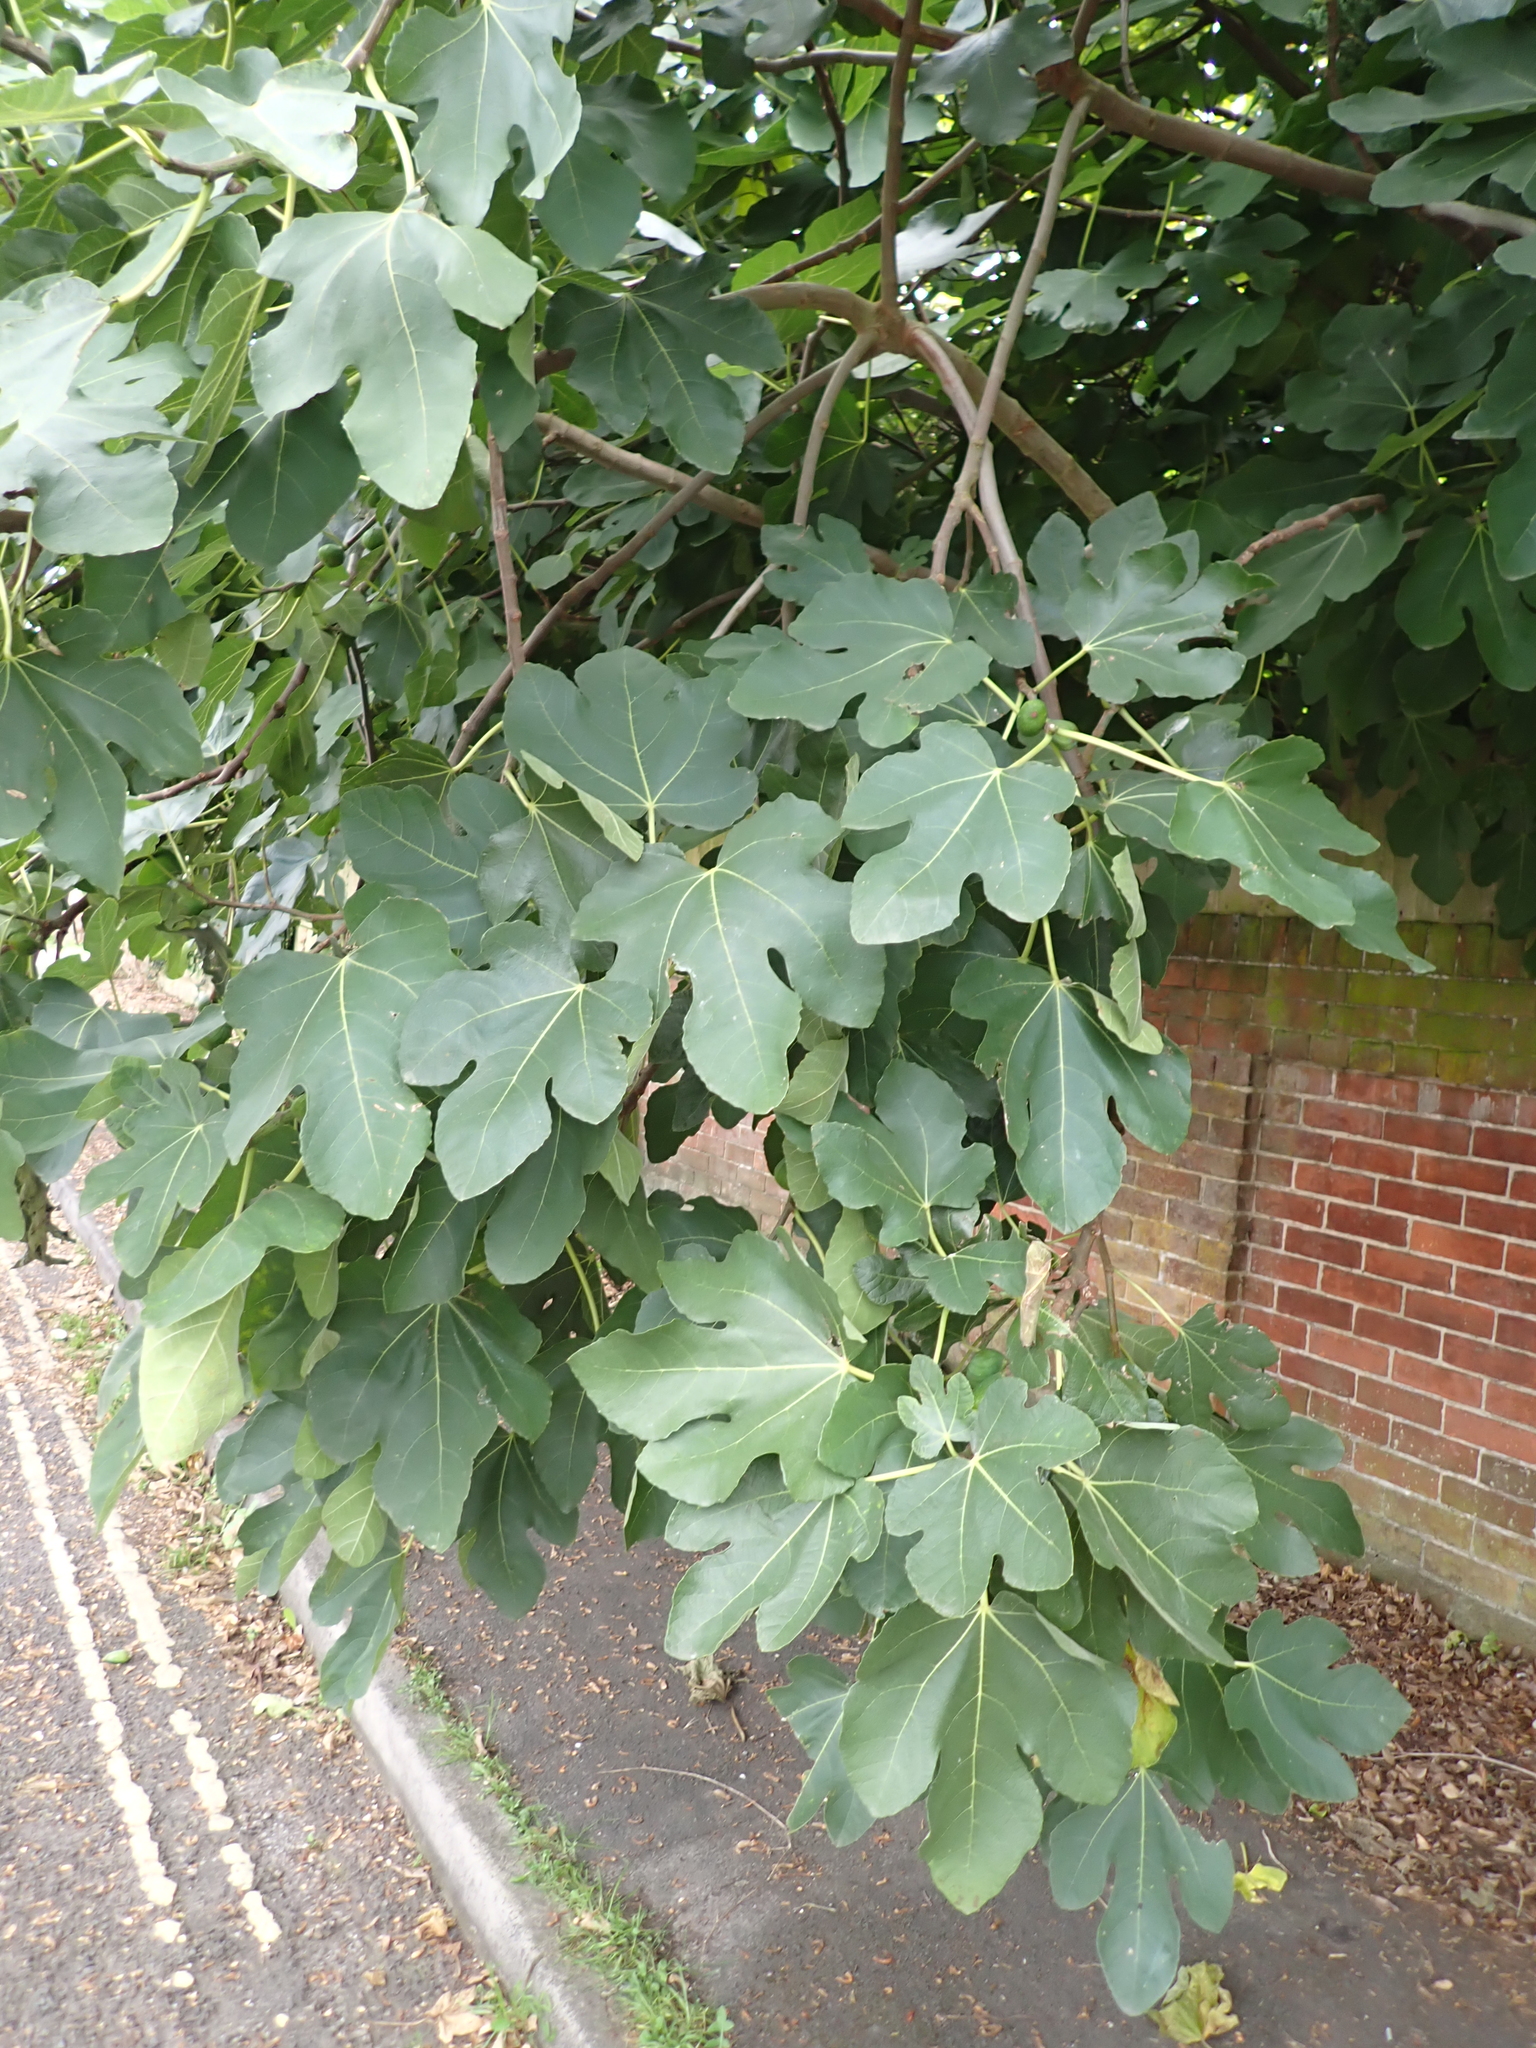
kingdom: Plantae
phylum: Tracheophyta
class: Magnoliopsida
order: Rosales
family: Moraceae
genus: Ficus
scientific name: Ficus carica
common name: Fig
